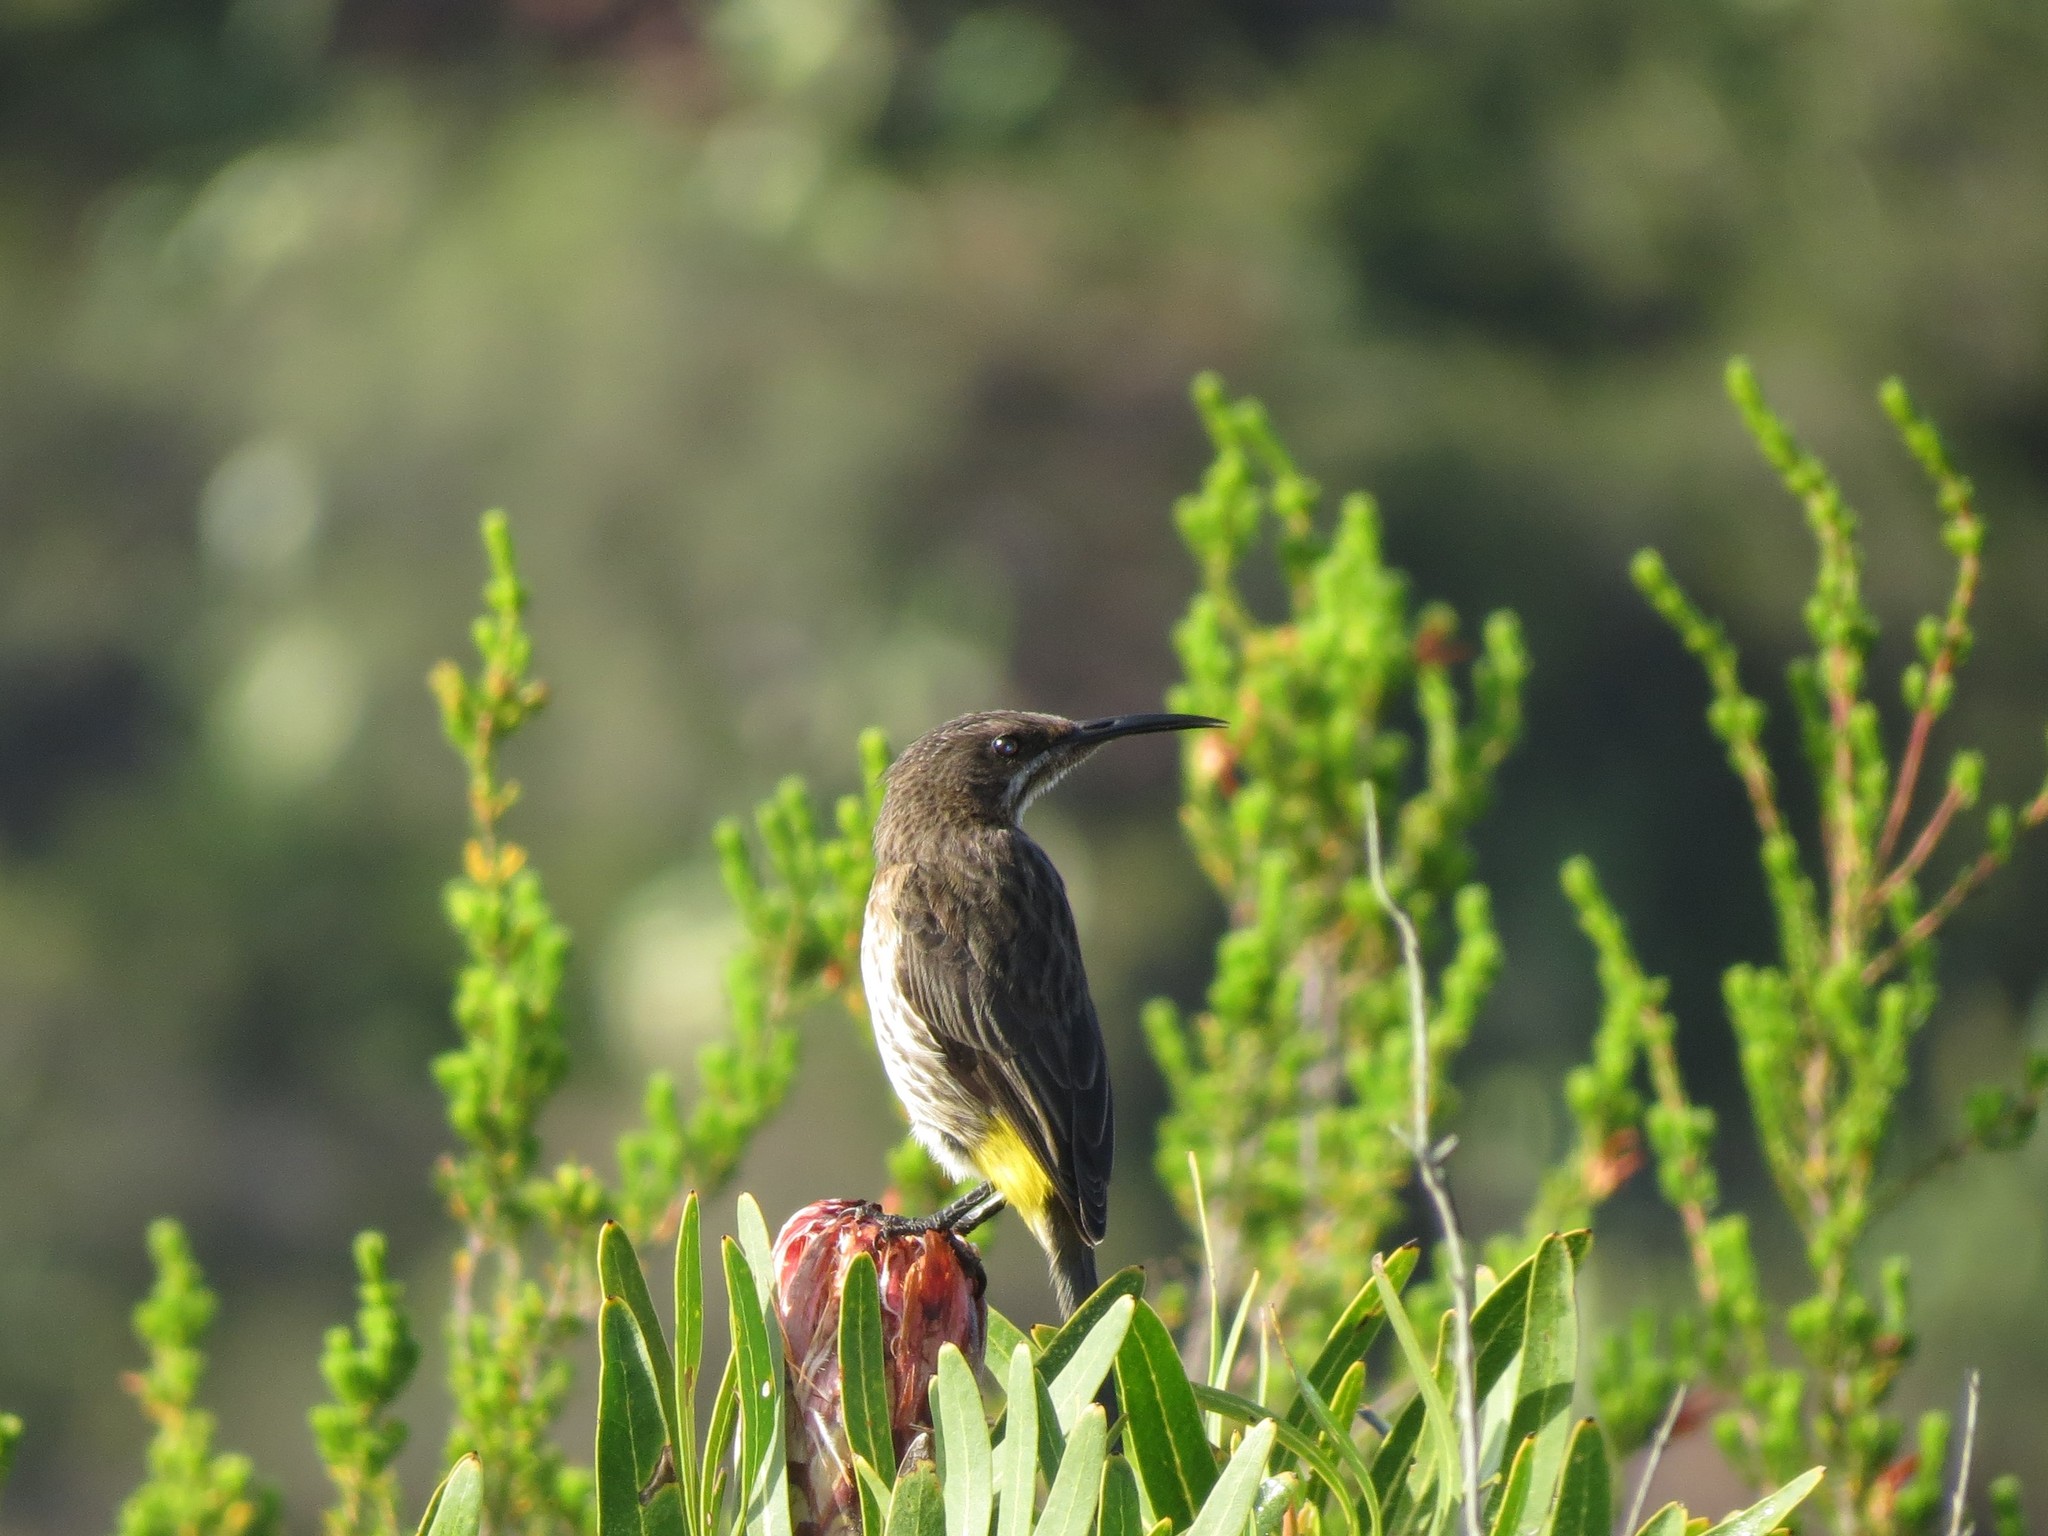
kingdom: Animalia
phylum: Chordata
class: Aves
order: Passeriformes
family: Promeropidae
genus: Promerops
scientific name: Promerops cafer
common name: Cape sugarbird
